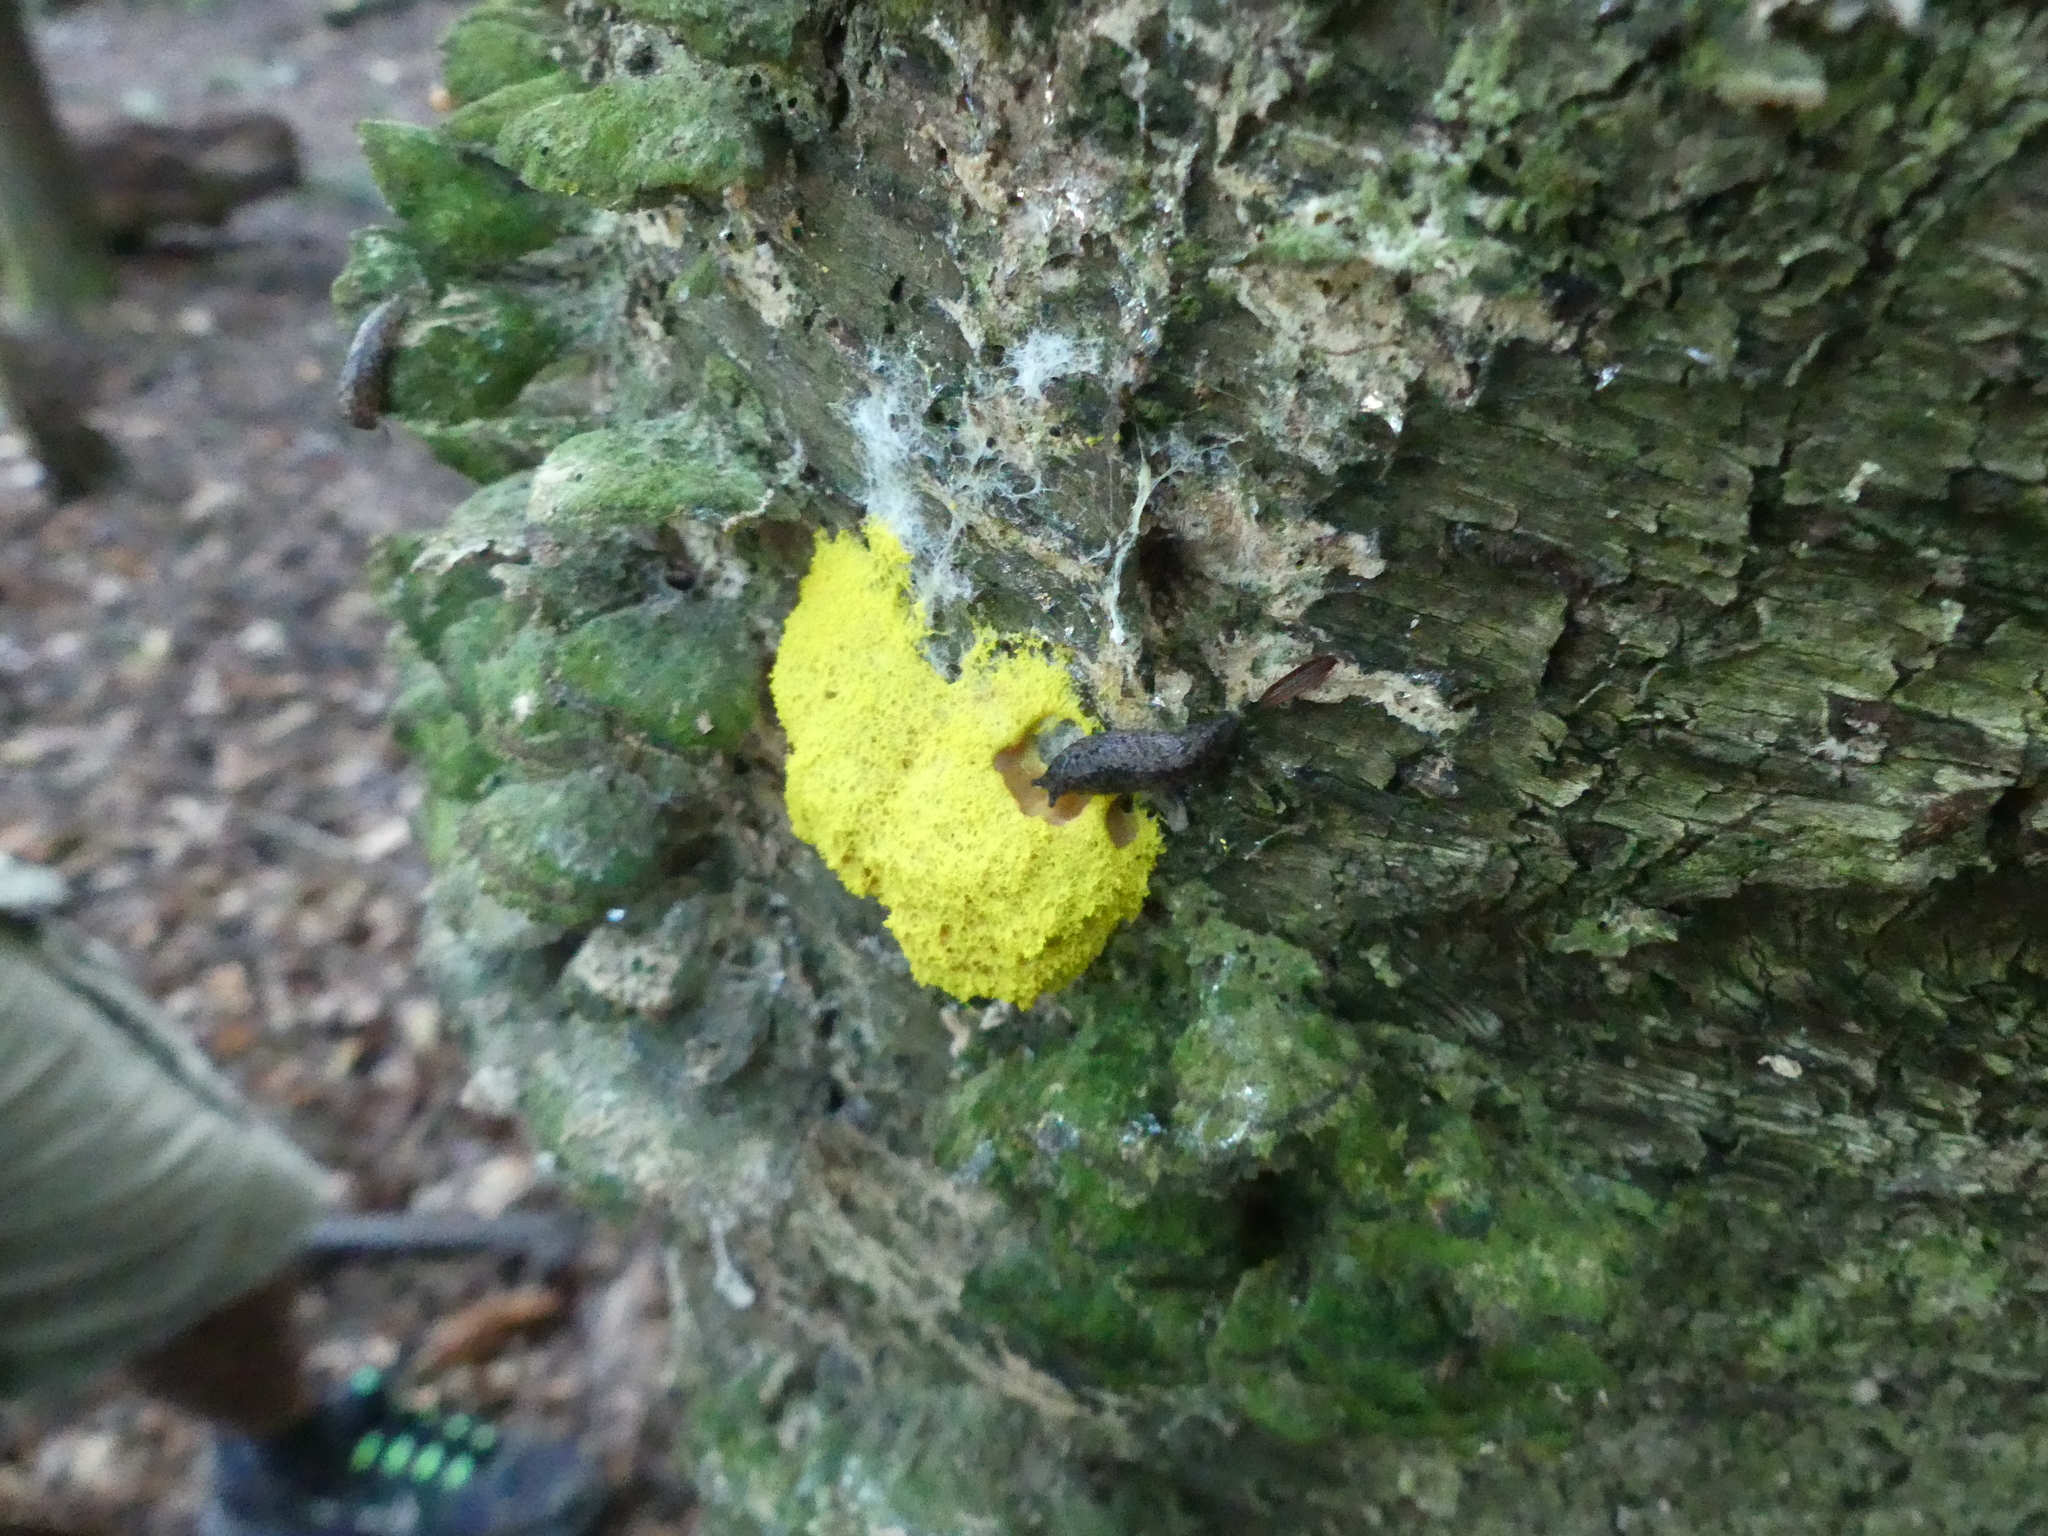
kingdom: Protozoa
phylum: Mycetozoa
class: Myxomycetes
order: Physarales
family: Physaraceae
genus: Fuligo
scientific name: Fuligo septica
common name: Dog vomit slime mold
